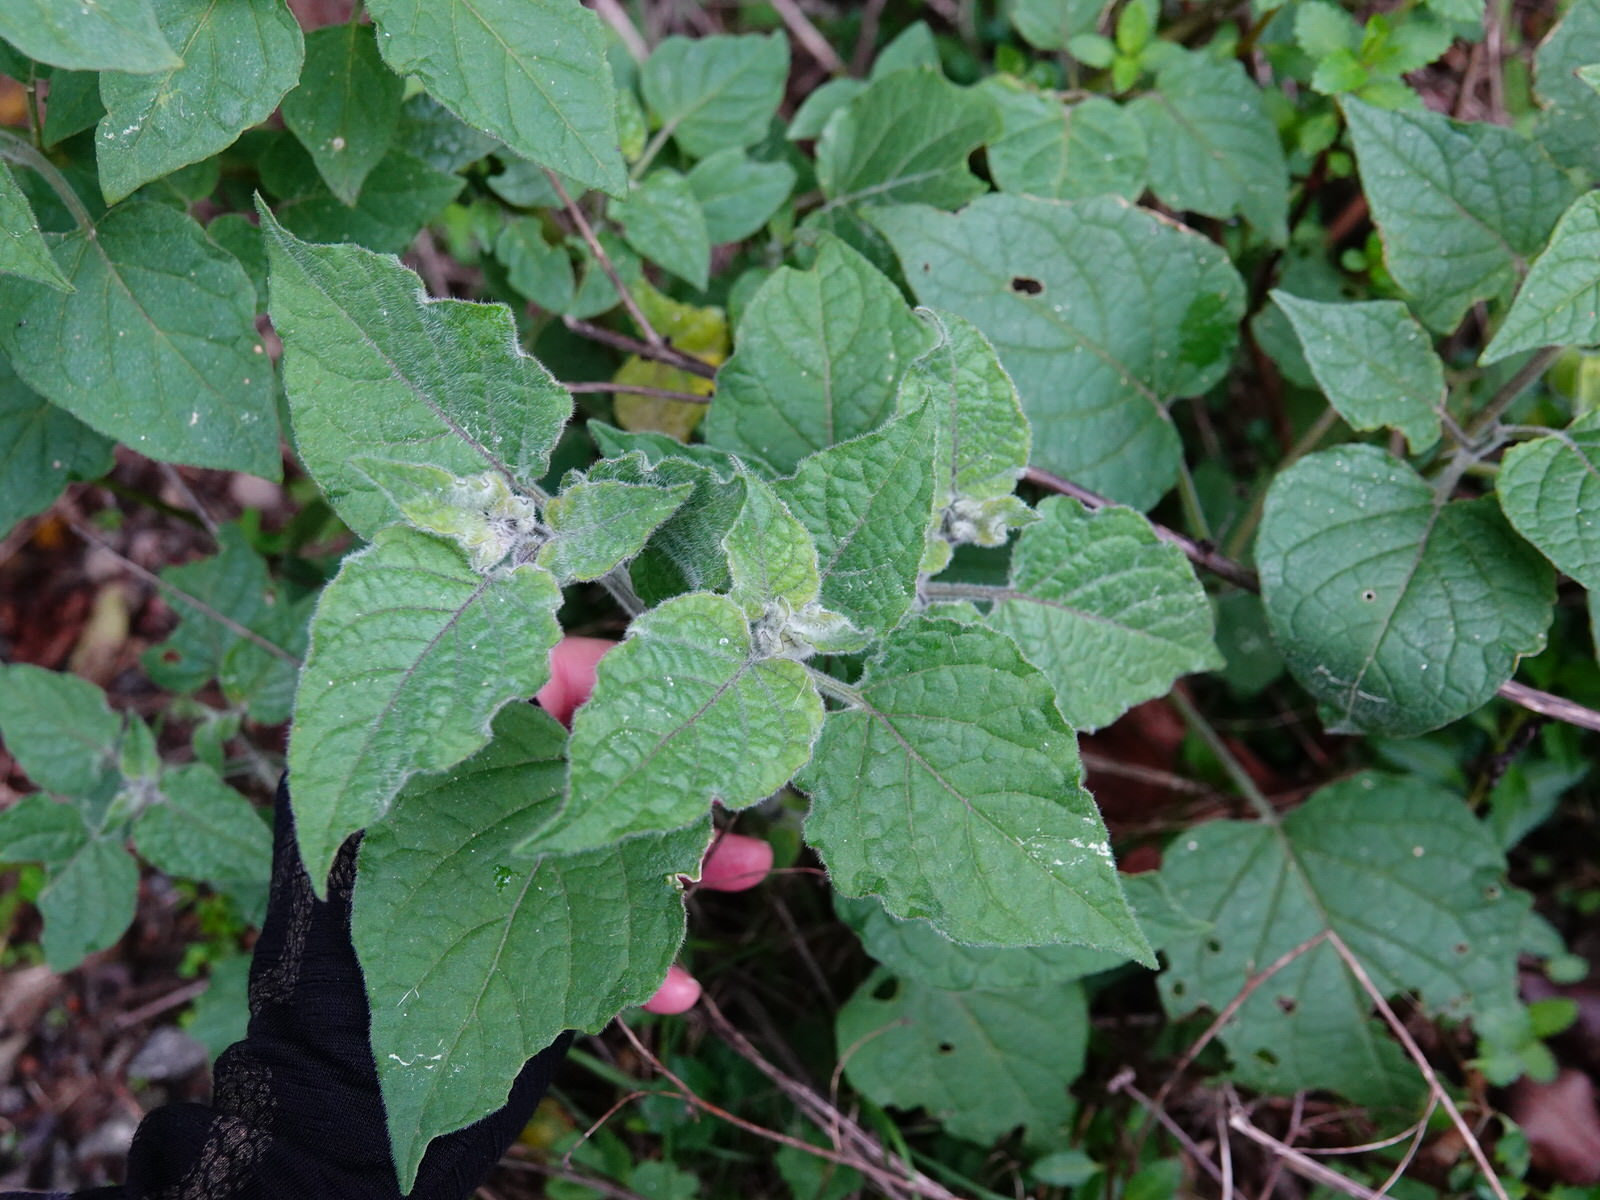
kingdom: Plantae
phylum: Tracheophyta
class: Magnoliopsida
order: Solanales
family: Solanaceae
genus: Physalis
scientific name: Physalis peruviana
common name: Cape-gooseberry
